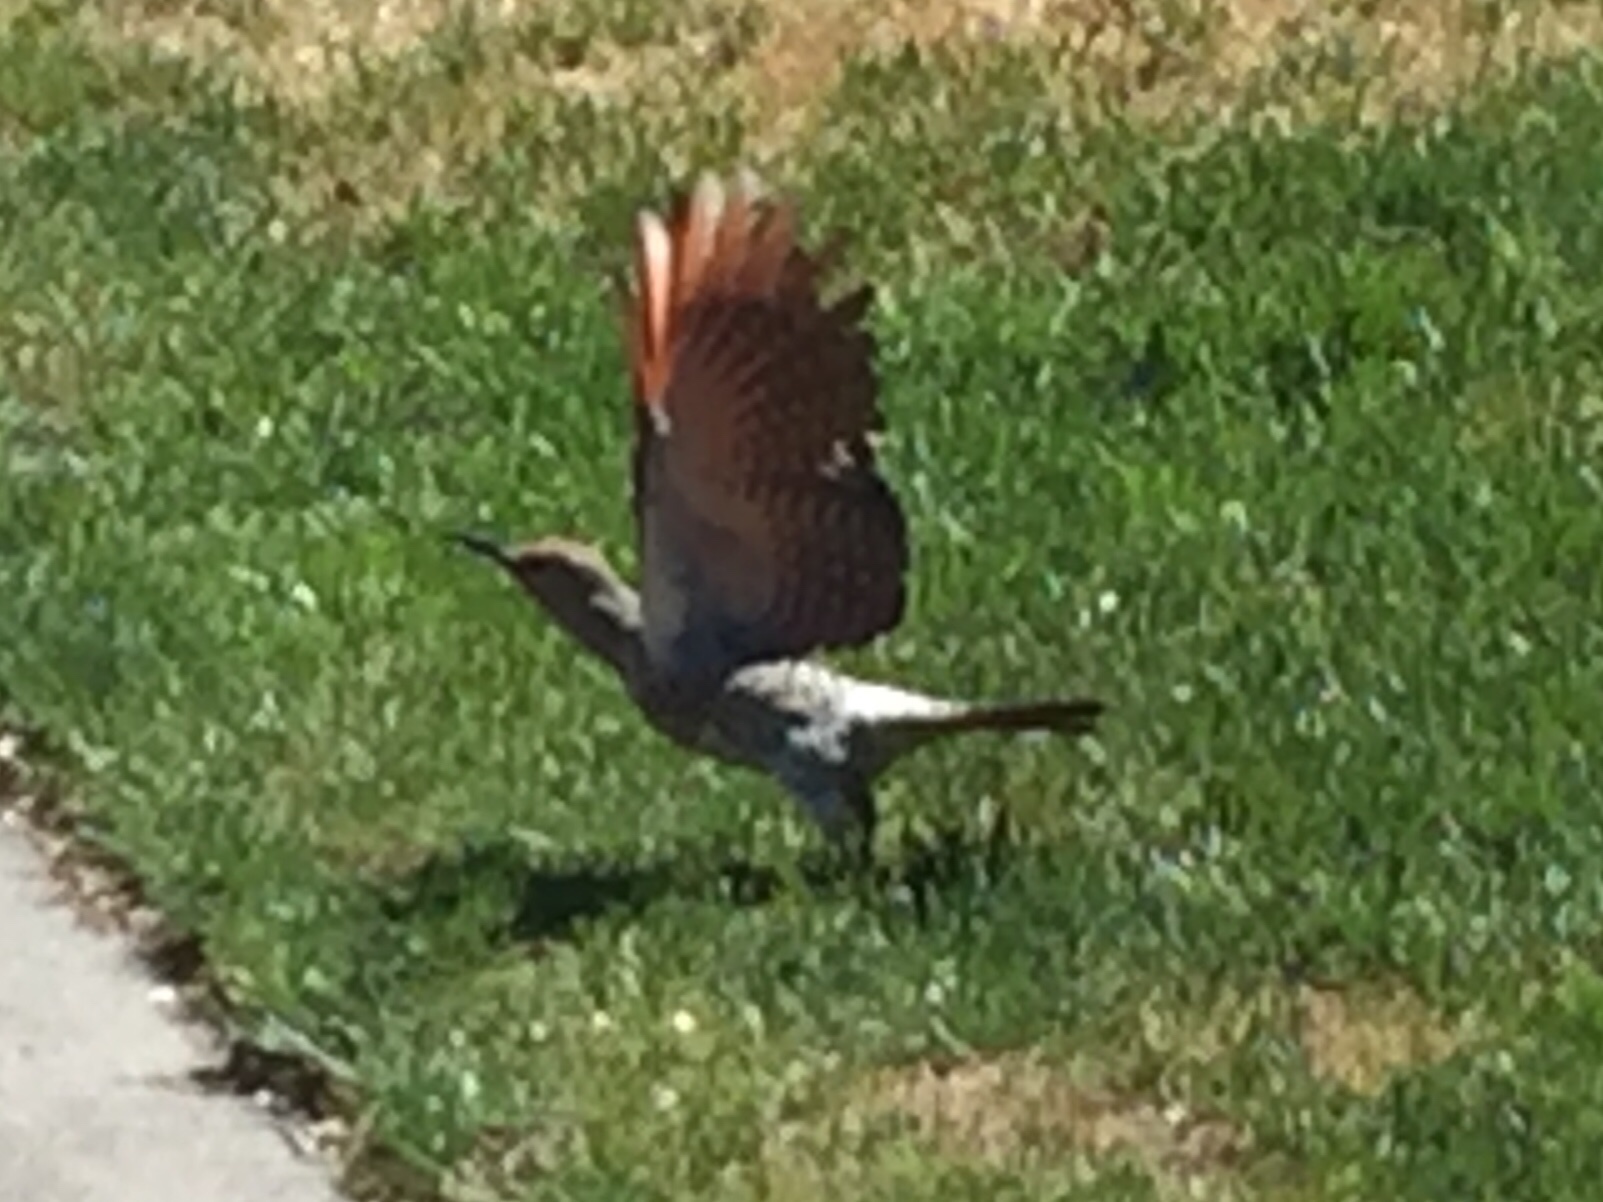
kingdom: Animalia
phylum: Chordata
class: Aves
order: Piciformes
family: Picidae
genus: Colaptes
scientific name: Colaptes auratus
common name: Northern flicker
